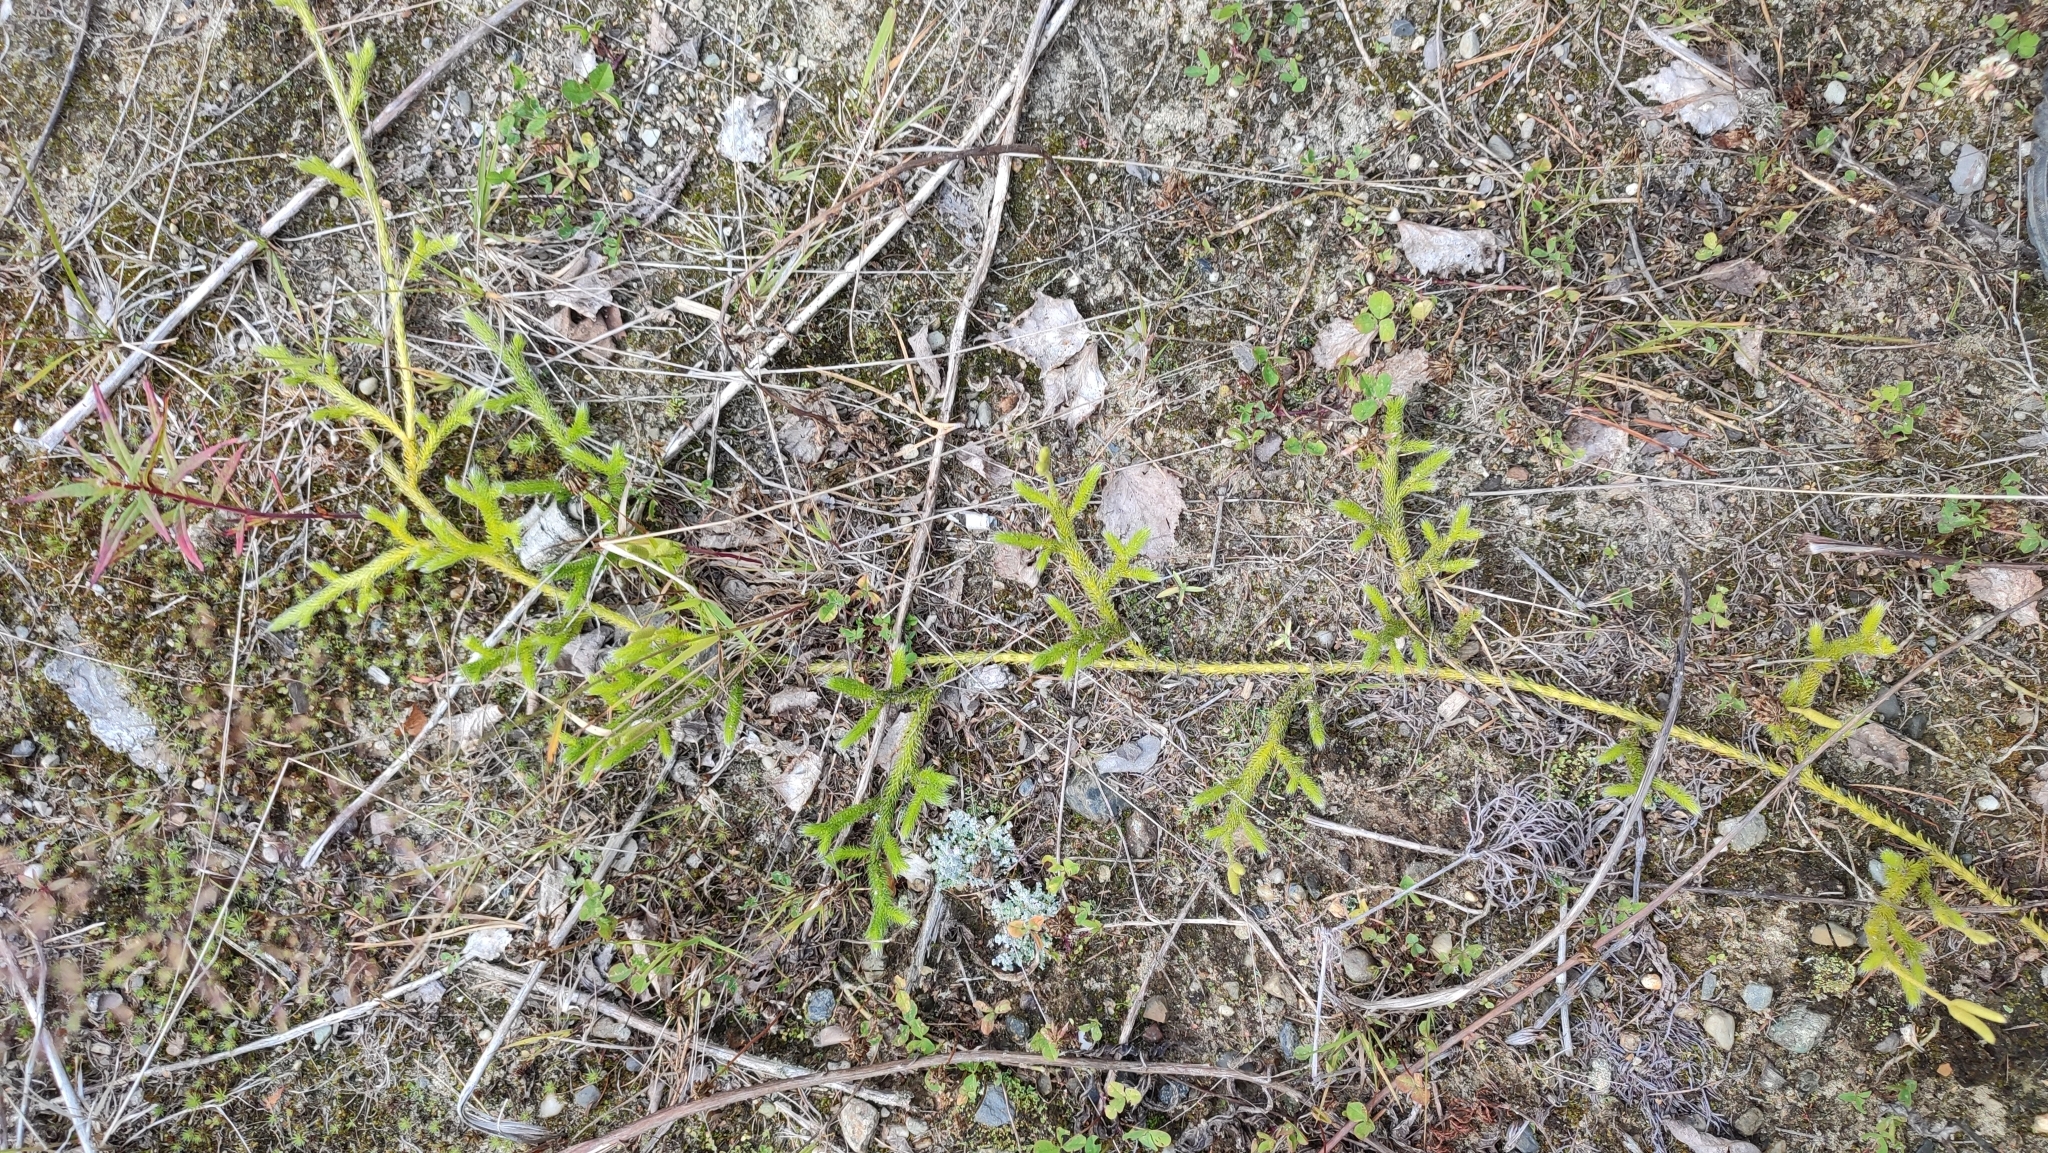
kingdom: Plantae
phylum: Tracheophyta
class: Lycopodiopsida
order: Lycopodiales
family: Lycopodiaceae
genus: Lycopodium
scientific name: Lycopodium clavatum
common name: Stag's-horn clubmoss
